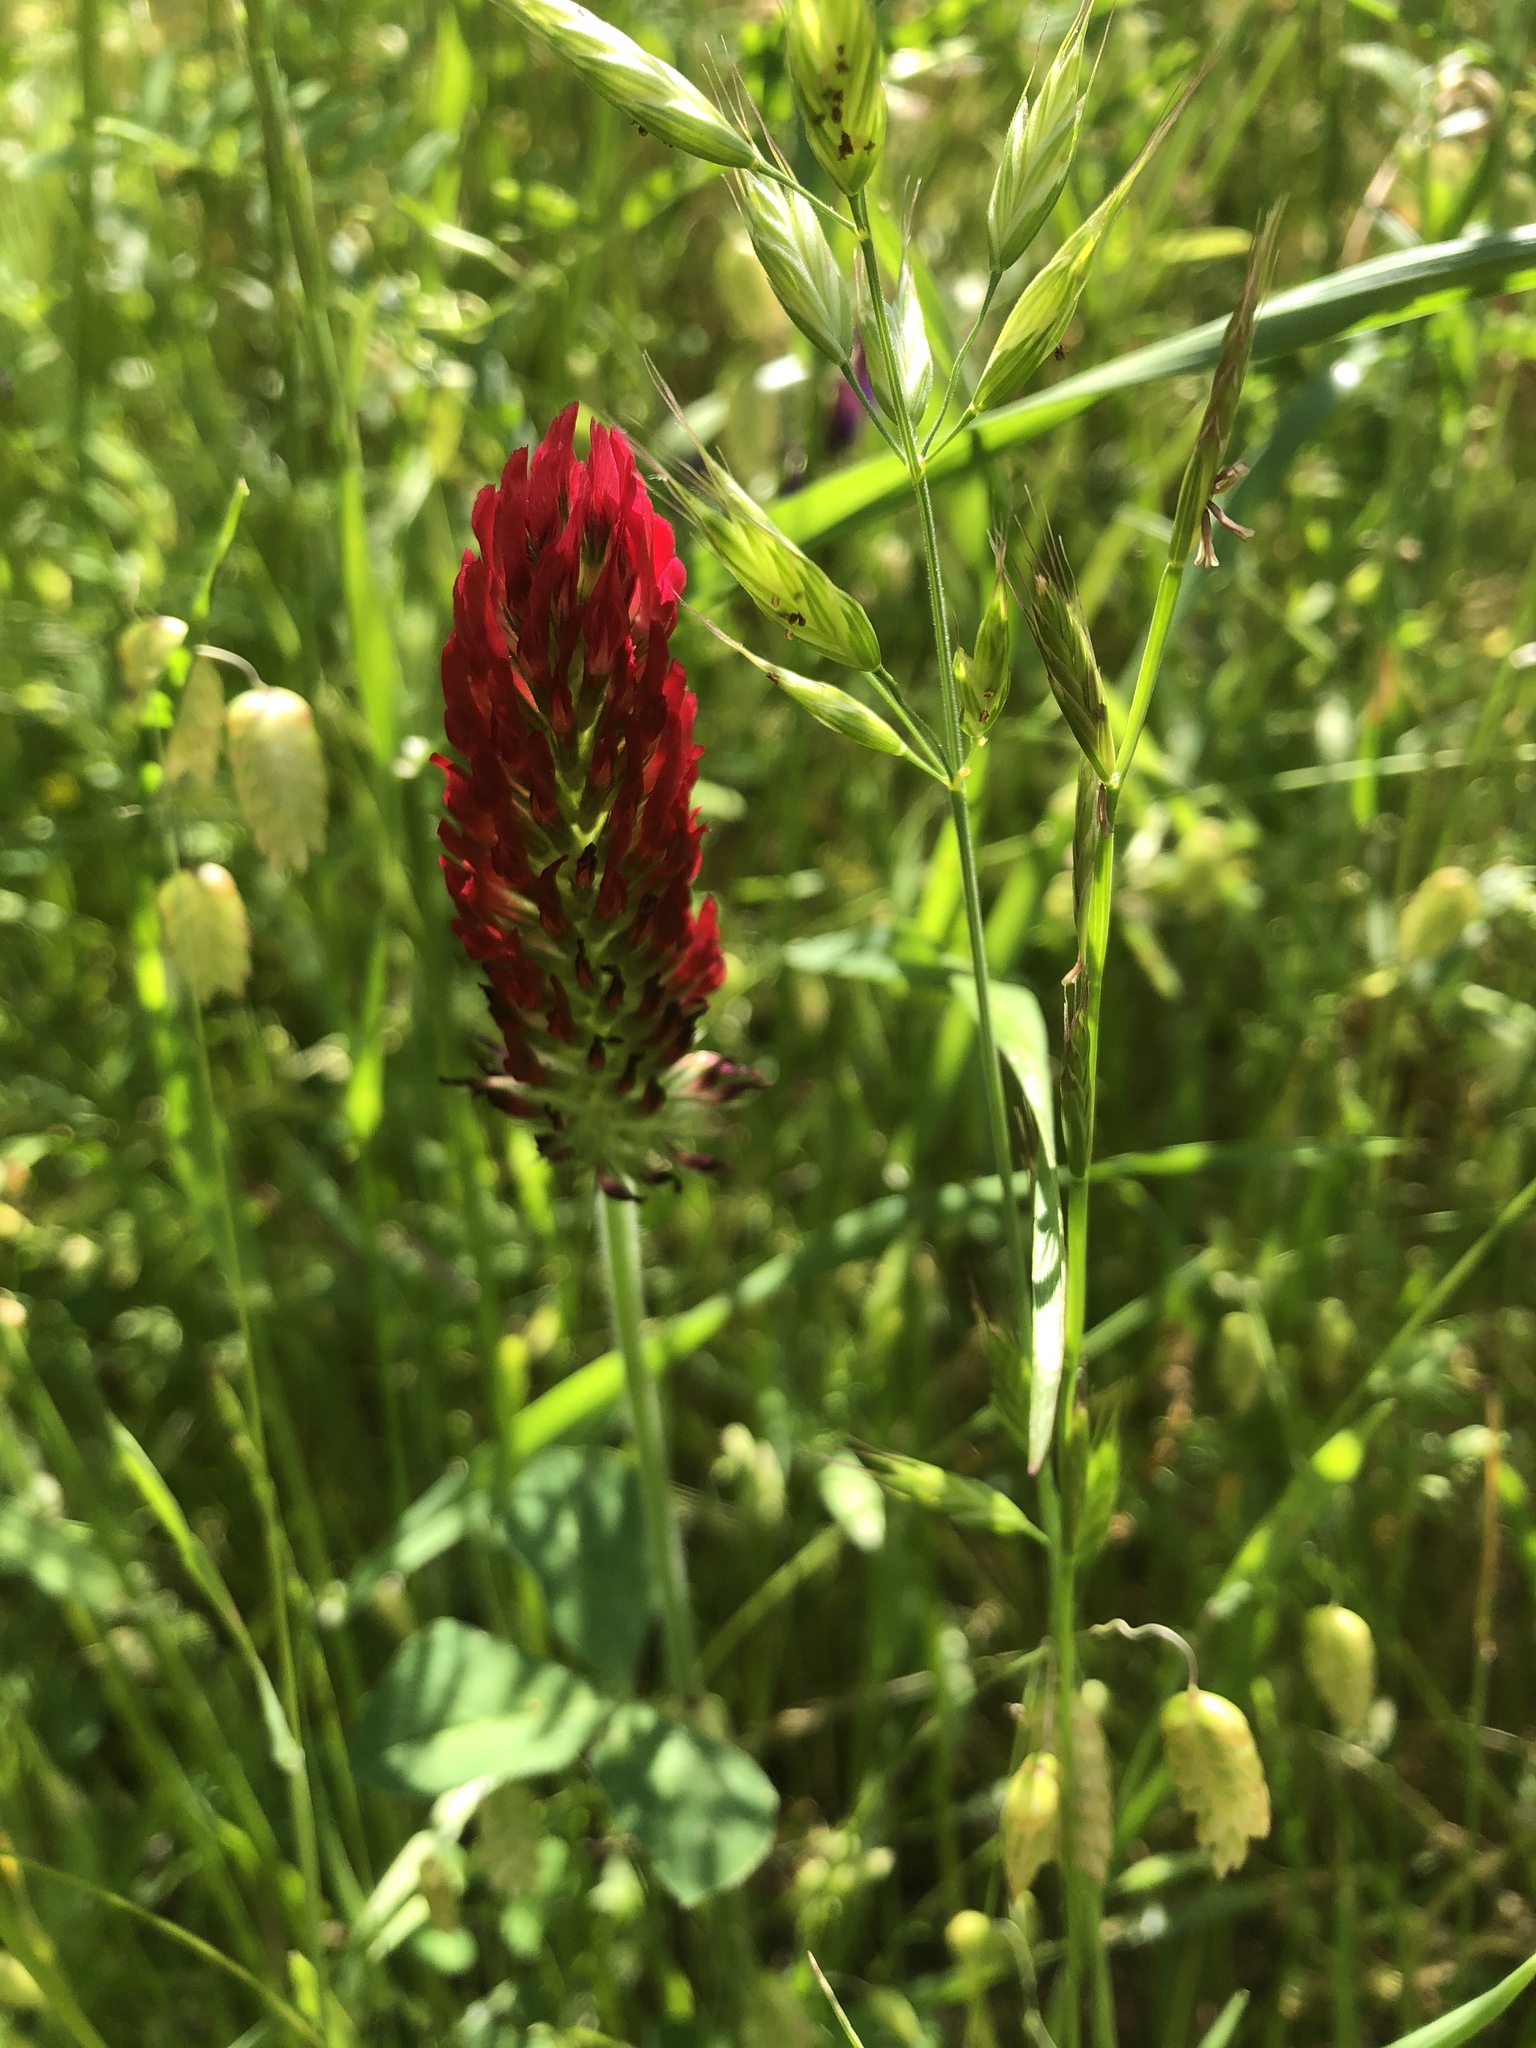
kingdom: Plantae
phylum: Tracheophyta
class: Magnoliopsida
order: Fabales
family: Fabaceae
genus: Trifolium
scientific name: Trifolium incarnatum
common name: Crimson clover
